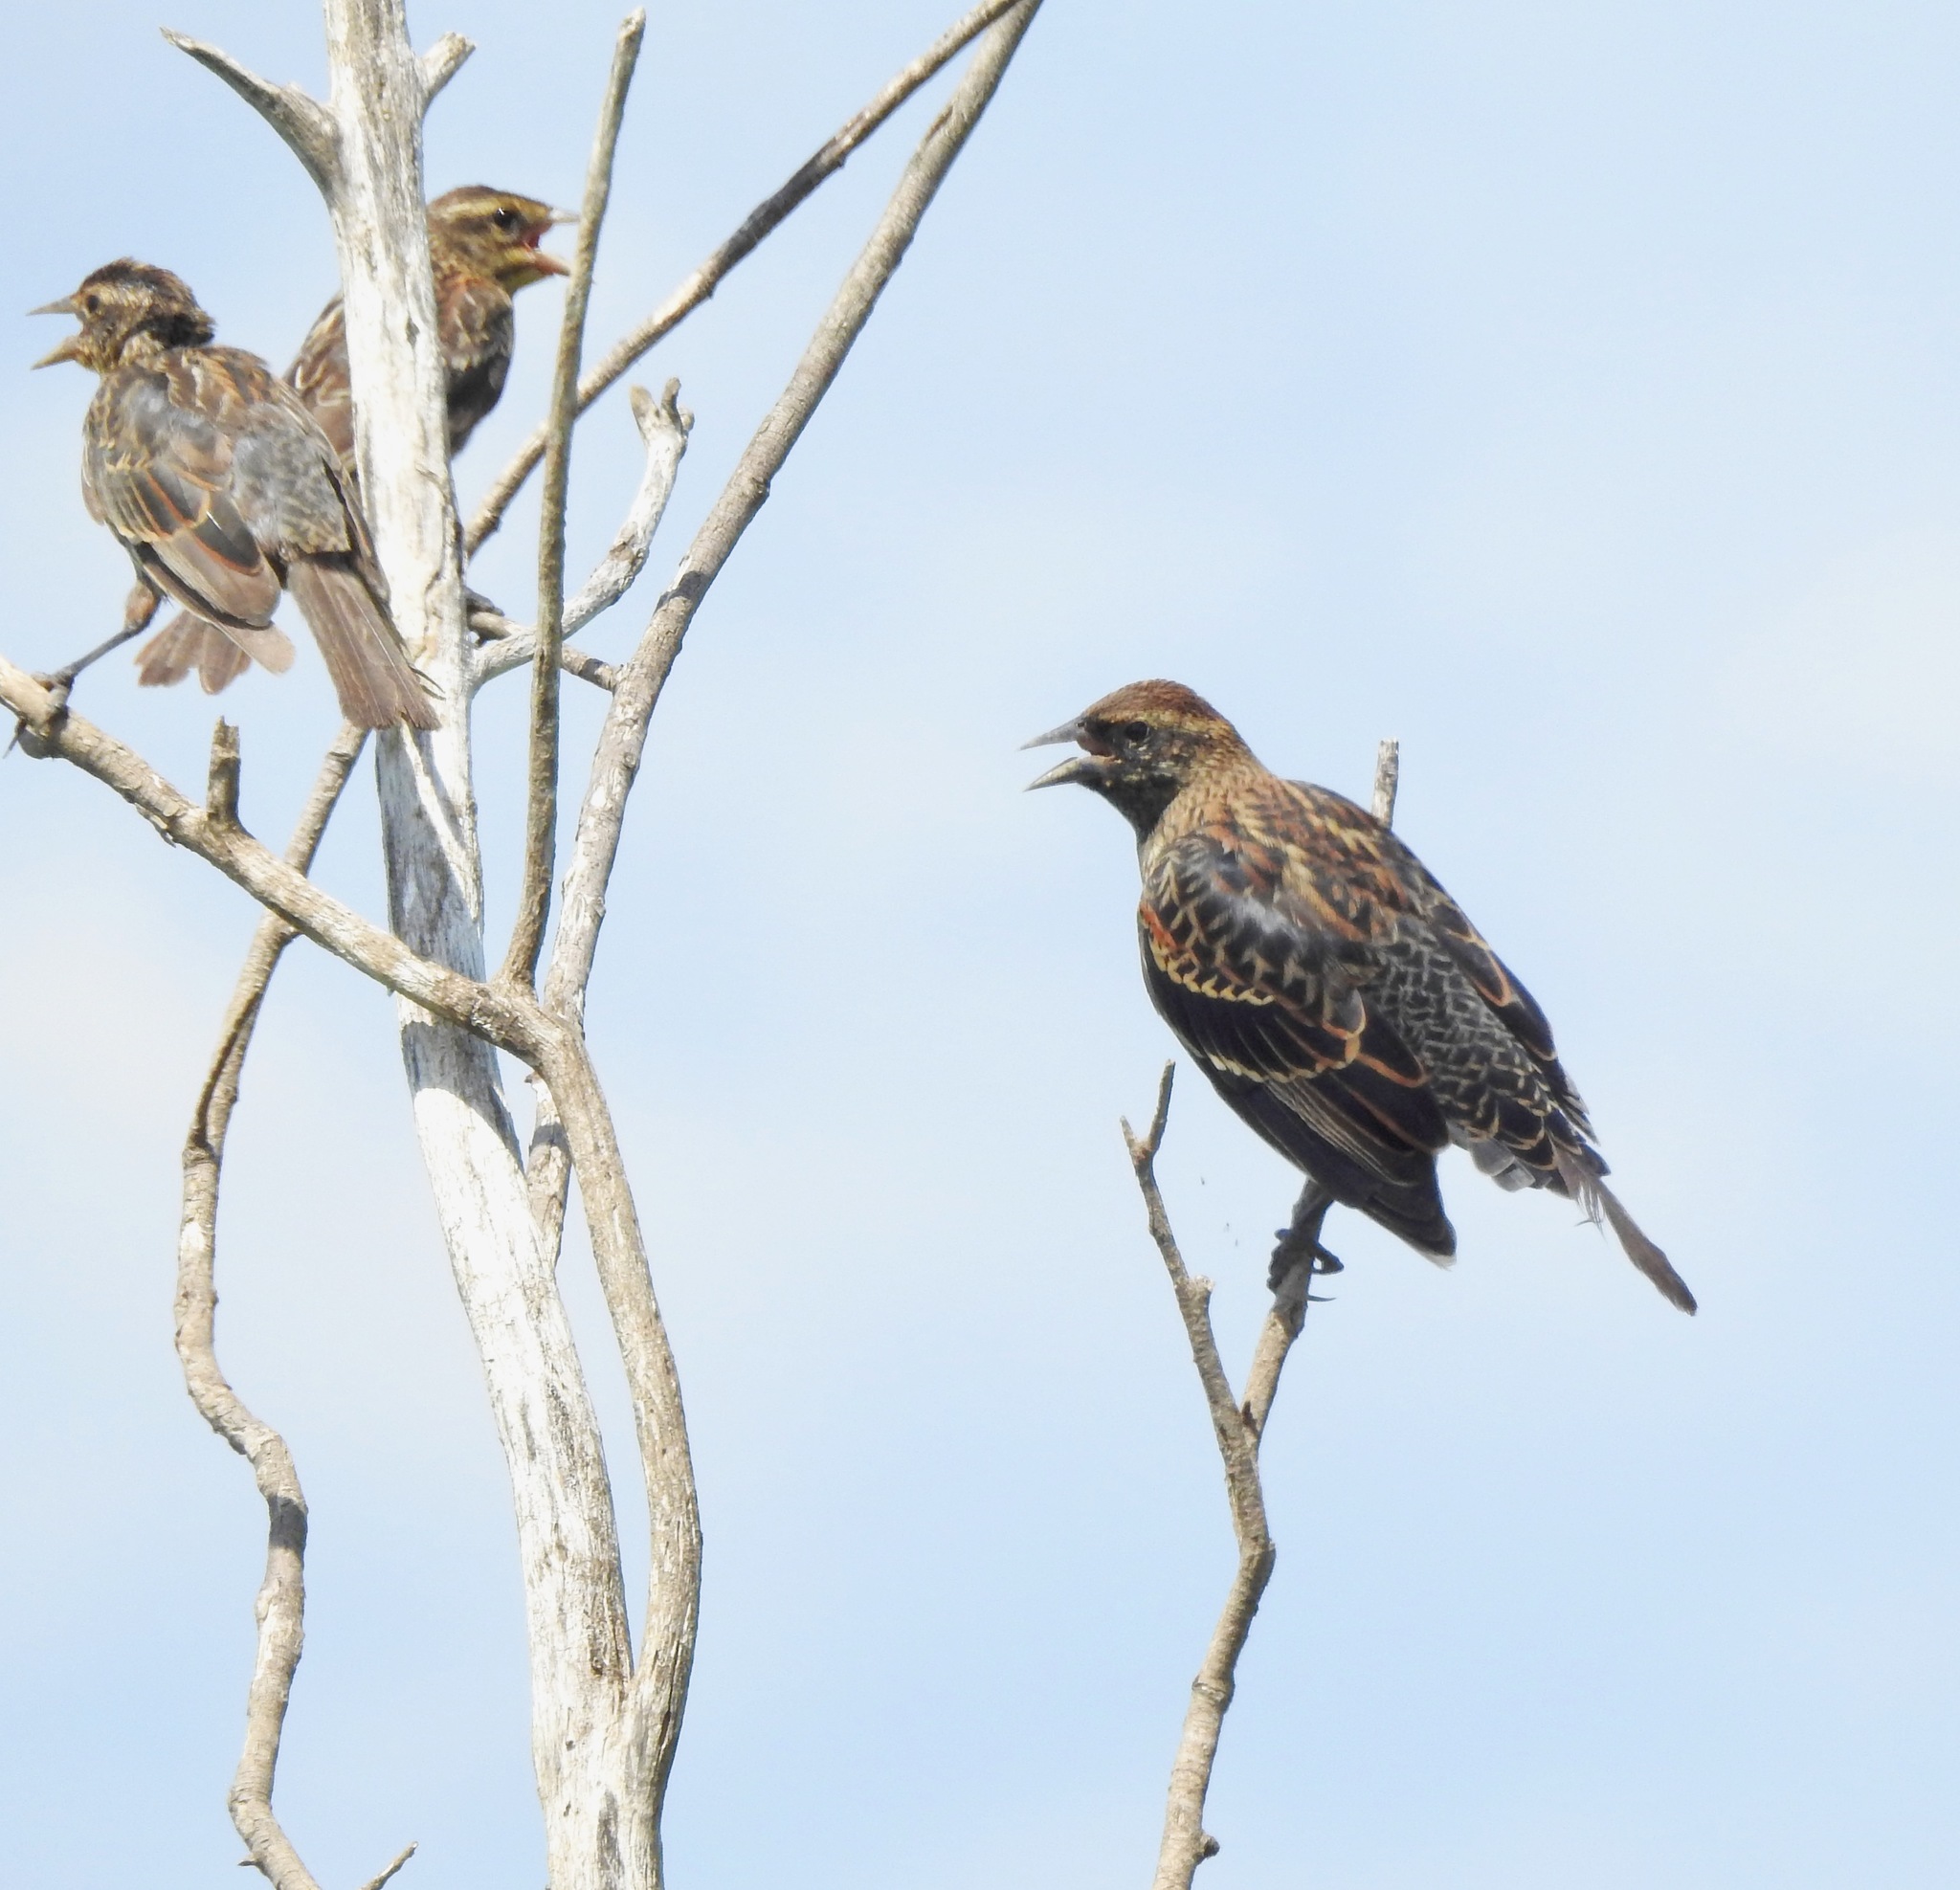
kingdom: Animalia
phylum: Chordata
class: Aves
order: Passeriformes
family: Icteridae
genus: Agelaius
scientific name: Agelaius phoeniceus
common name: Red-winged blackbird
